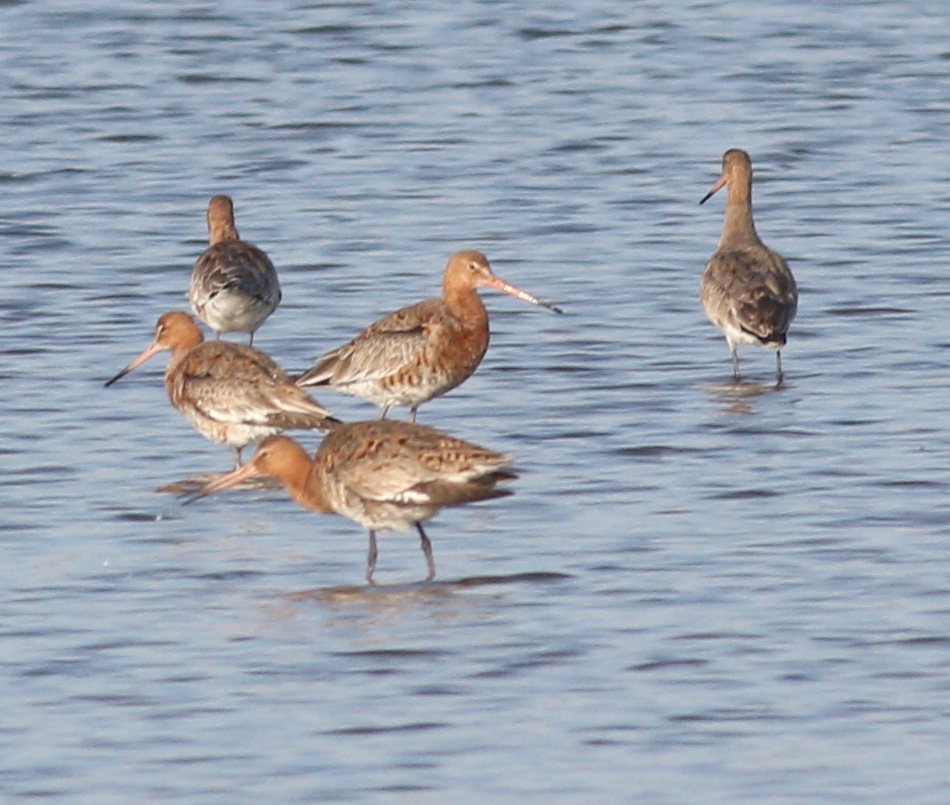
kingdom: Animalia
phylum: Chordata
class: Aves
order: Charadriiformes
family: Scolopacidae
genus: Limosa
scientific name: Limosa limosa
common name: Black-tailed godwit
